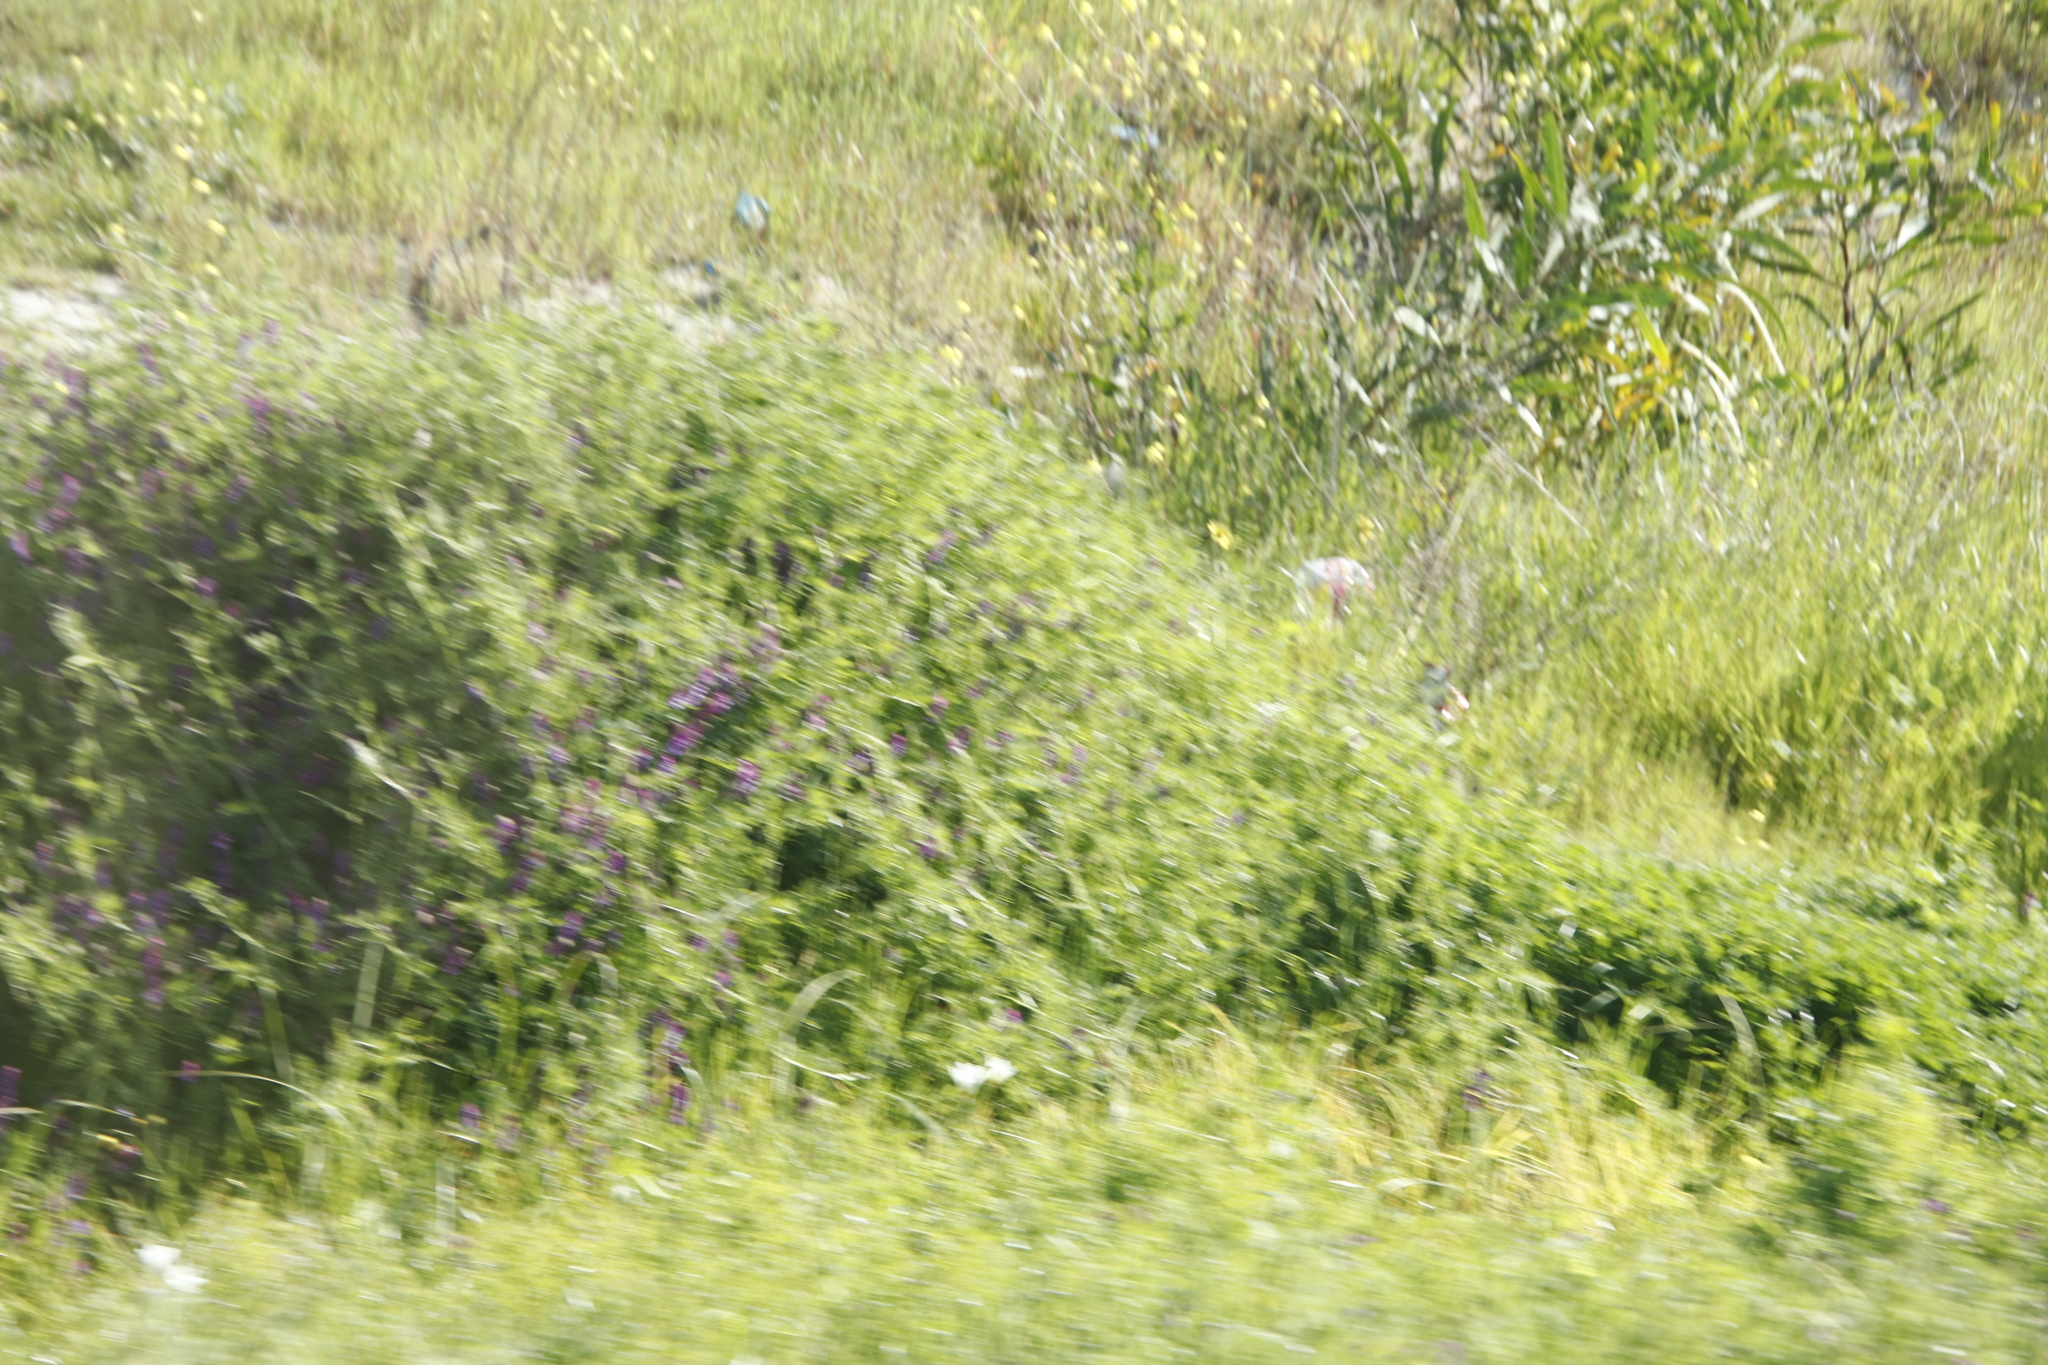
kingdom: Plantae
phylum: Tracheophyta
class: Liliopsida
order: Asparagales
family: Iridaceae
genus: Sparaxis
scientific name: Sparaxis bulbifera
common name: Harlequin-flower
